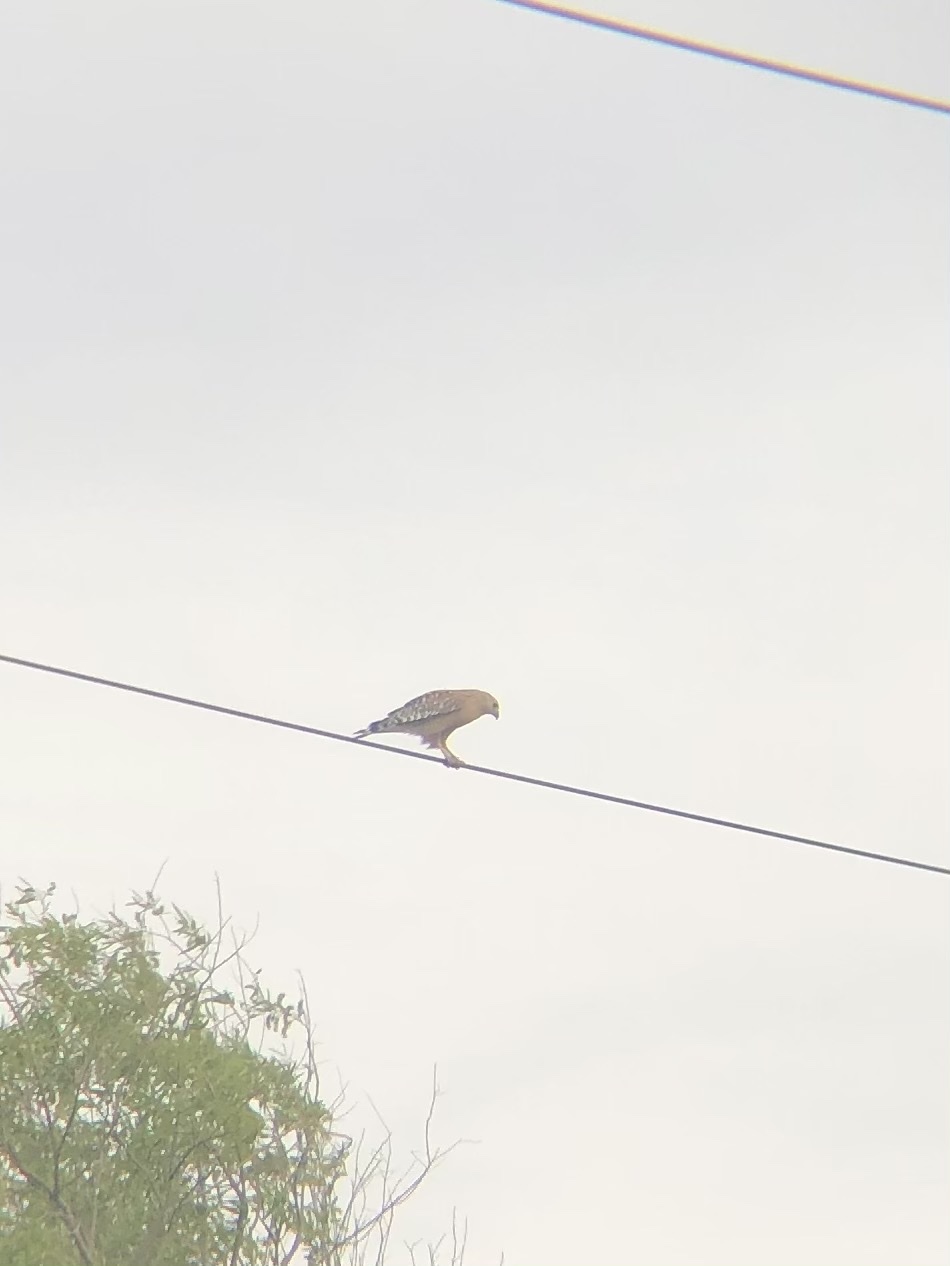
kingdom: Animalia
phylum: Chordata
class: Aves
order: Accipitriformes
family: Accipitridae
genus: Buteo
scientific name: Buteo lineatus
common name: Red-shouldered hawk
